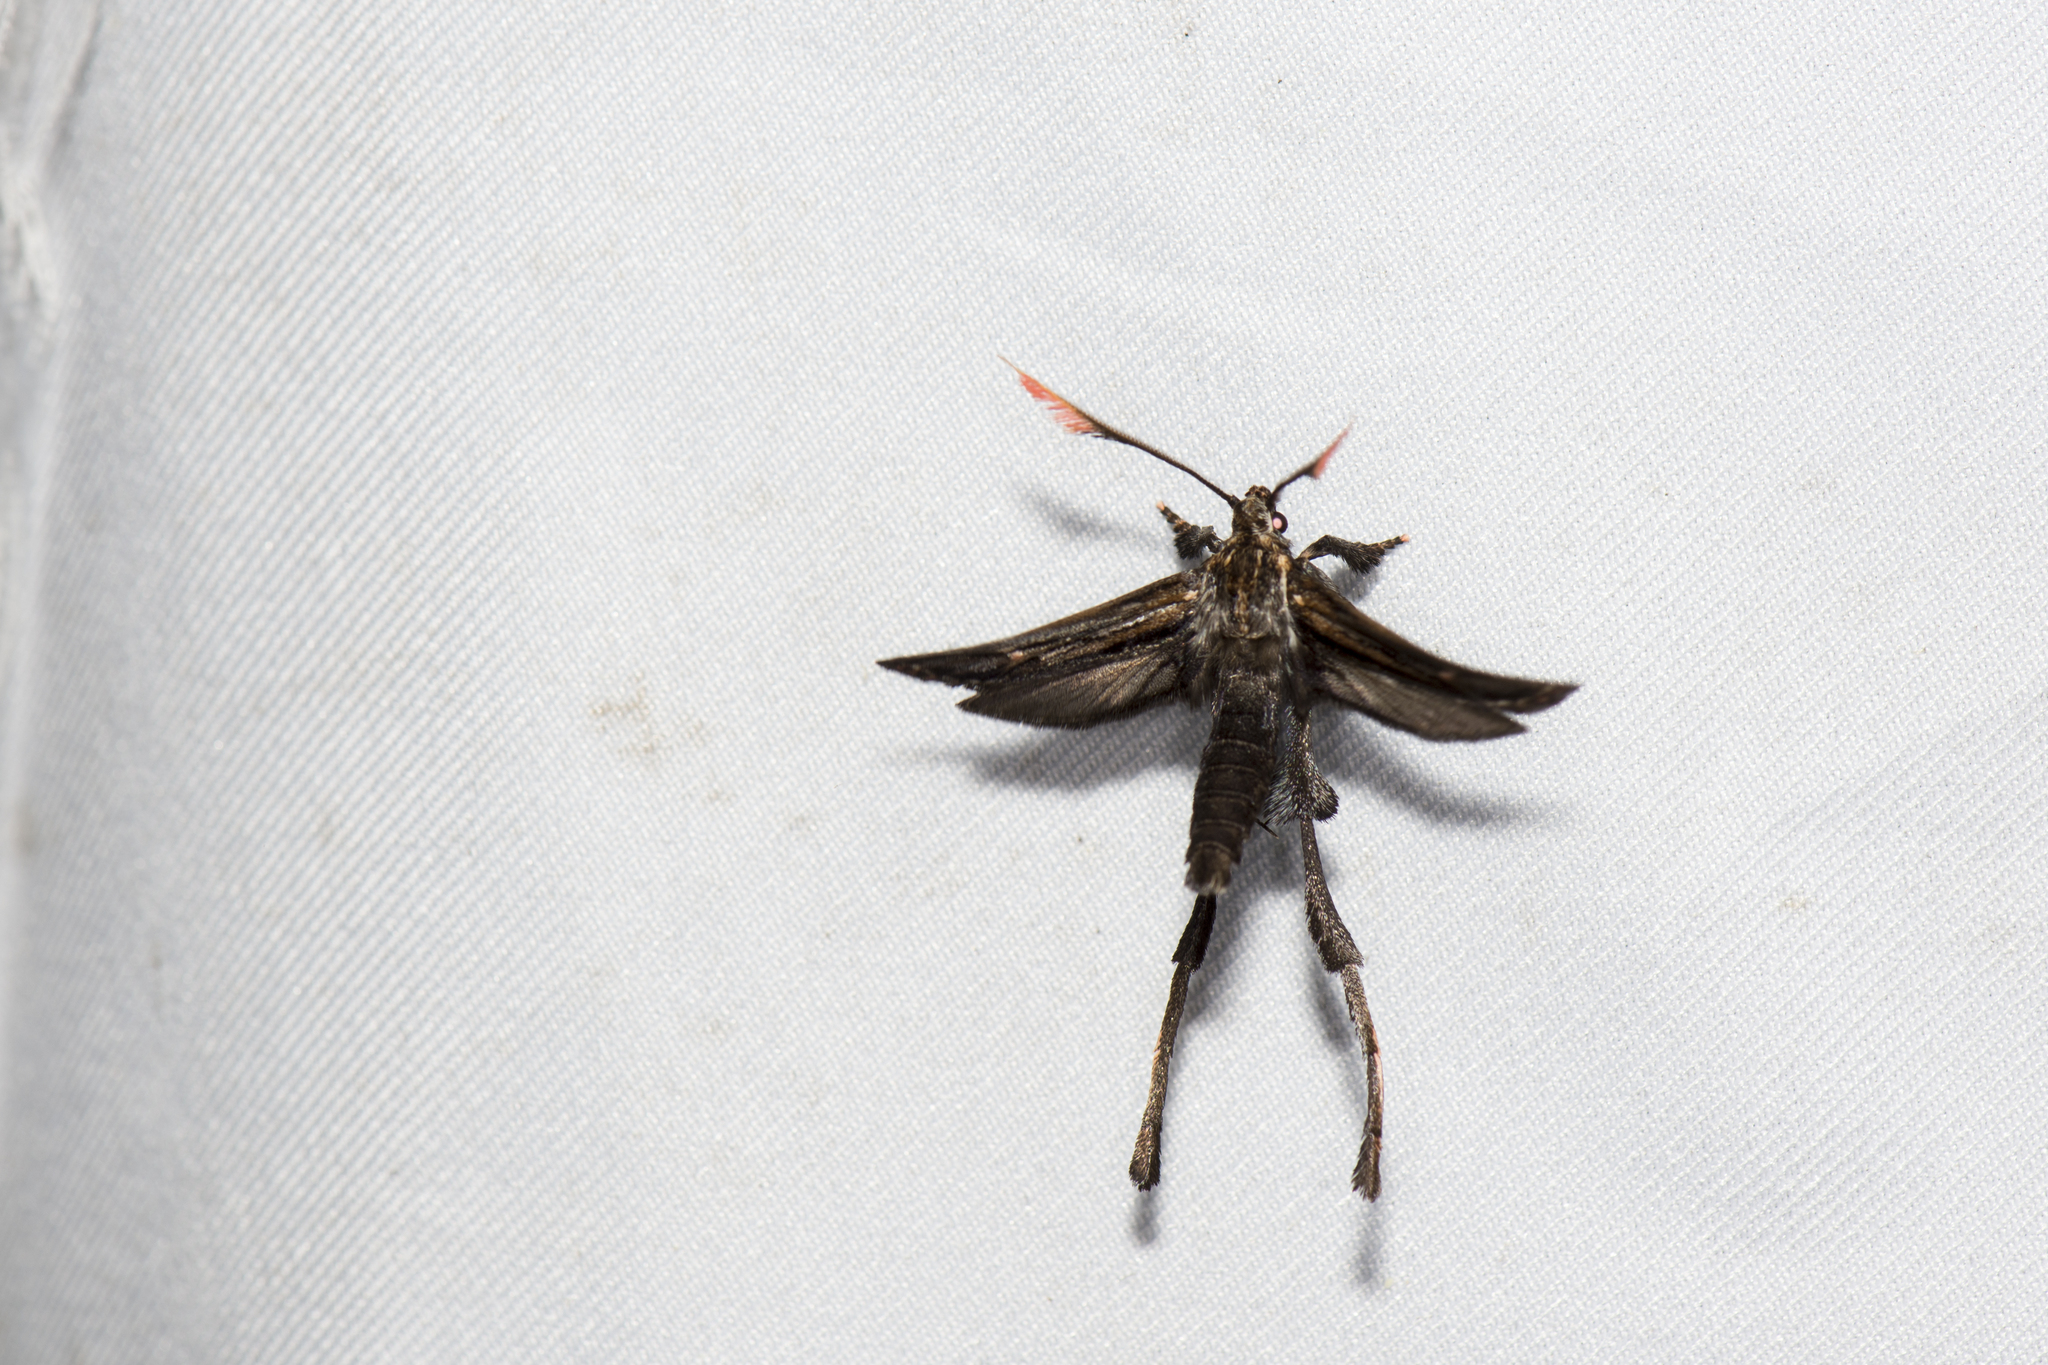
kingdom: Animalia
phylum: Arthropoda
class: Insecta
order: Lepidoptera
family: Ashinagidae
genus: Ashinaga
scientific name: Ashinaga longimana
